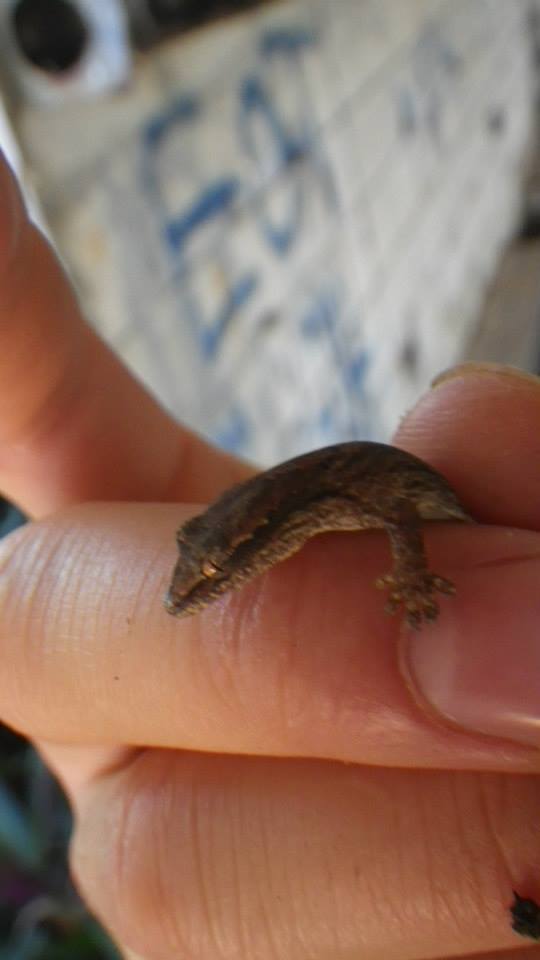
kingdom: Animalia
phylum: Chordata
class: Squamata
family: Gekkonidae
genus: Lepidodactylus
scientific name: Lepidodactylus lugubris
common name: Mourning gecko
